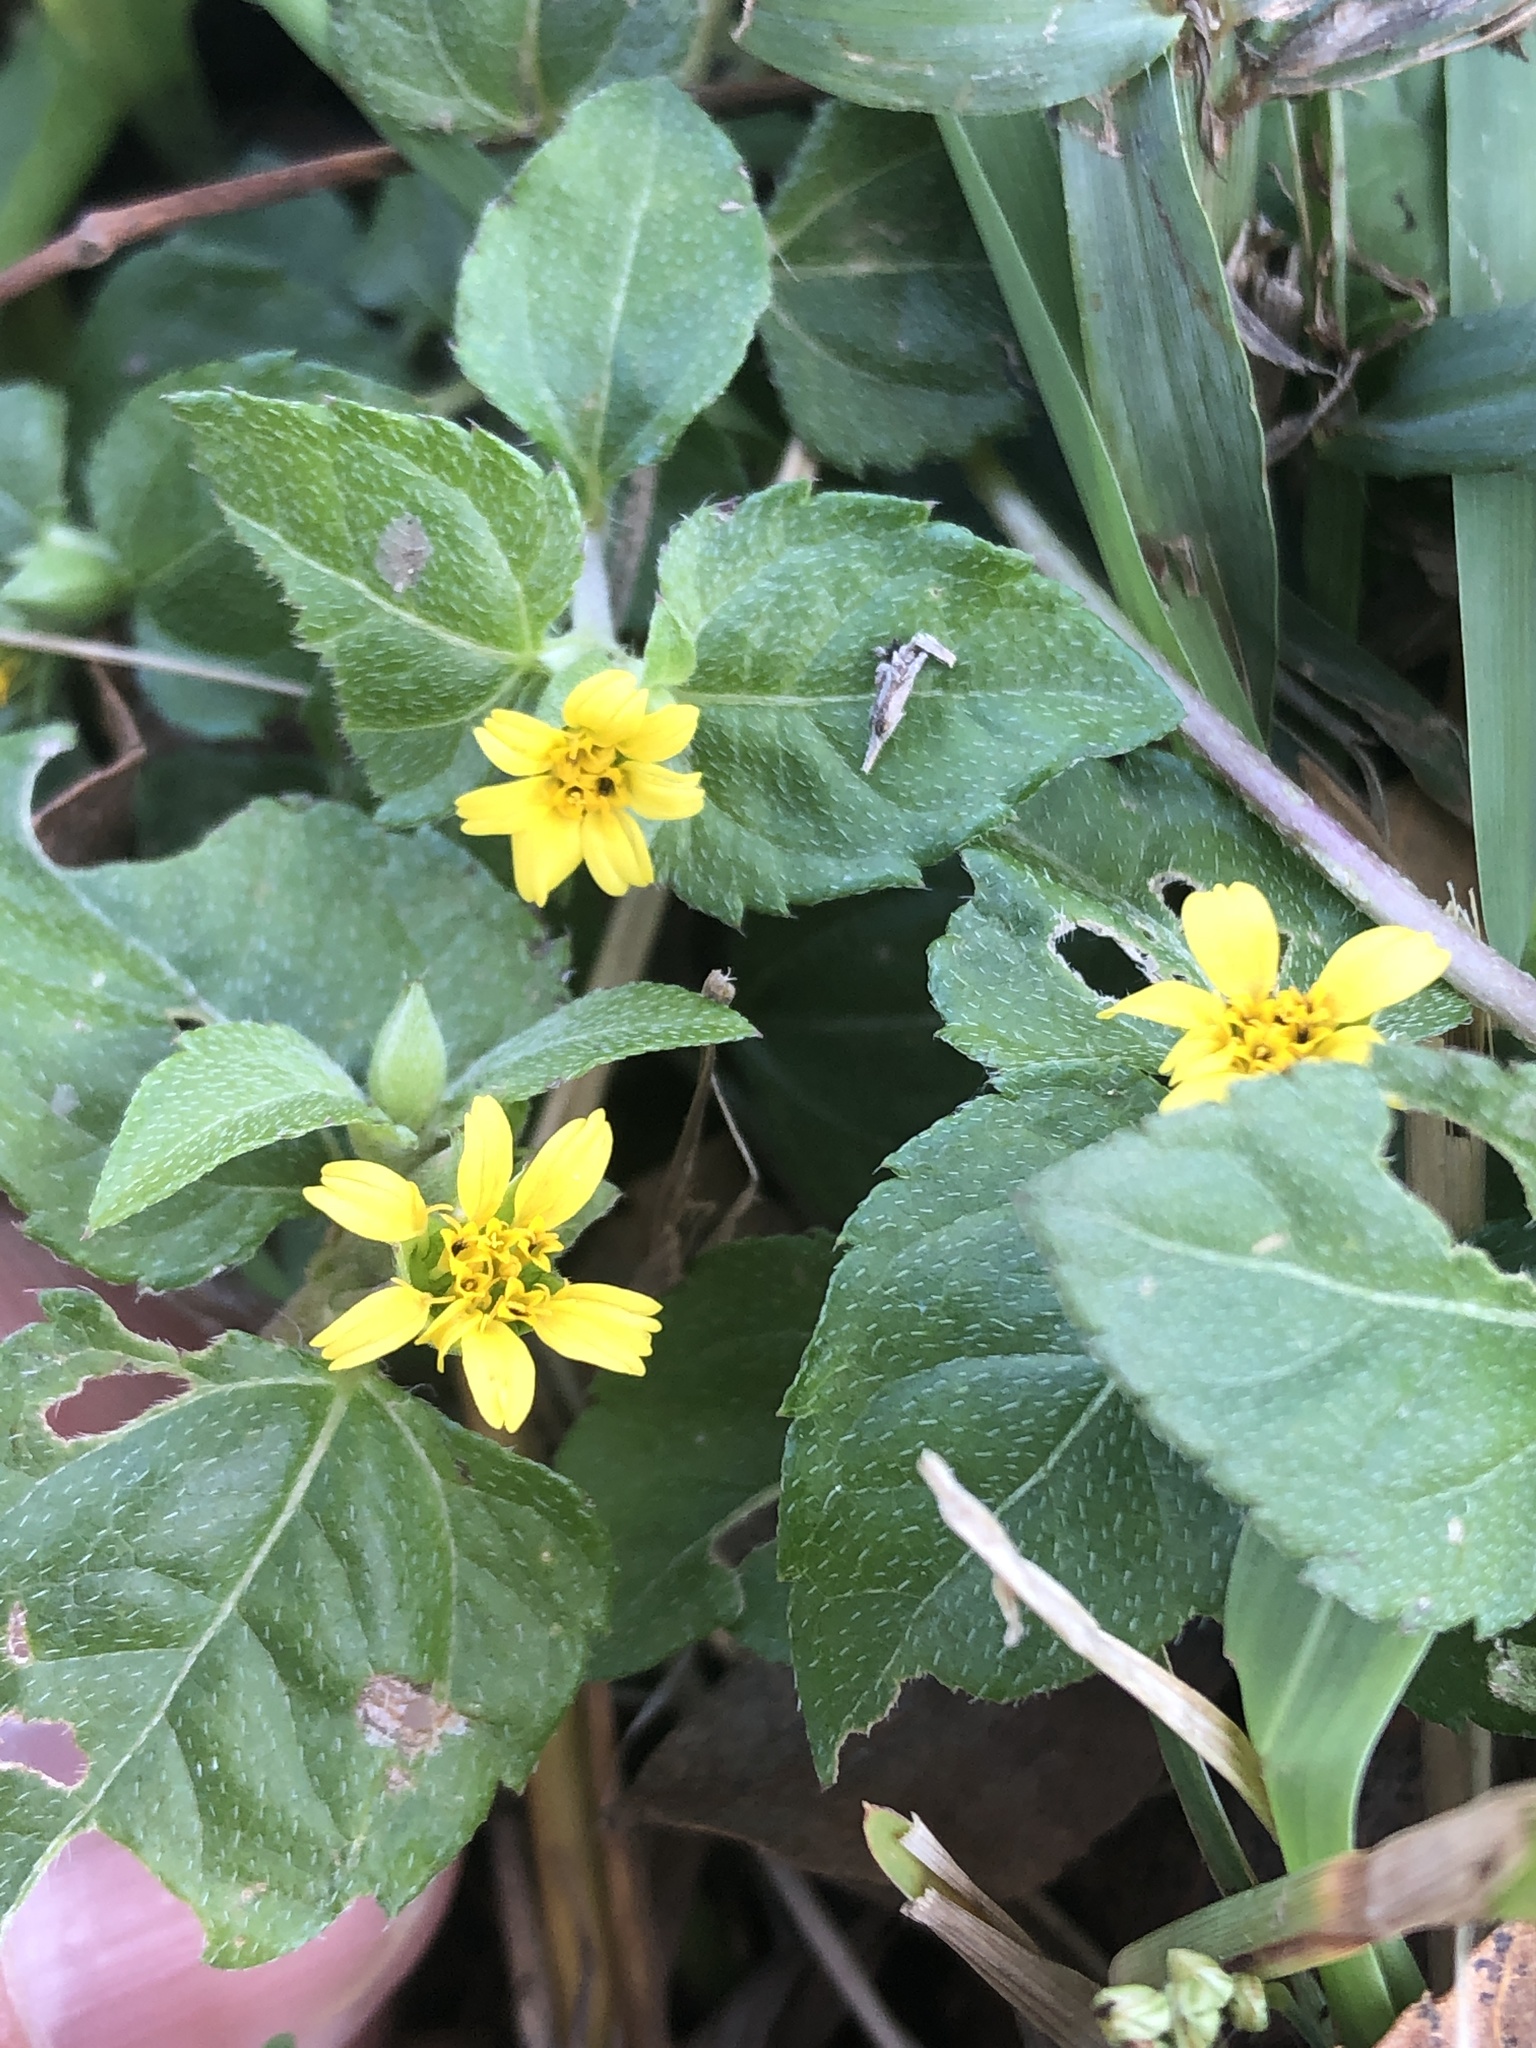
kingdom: Plantae
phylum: Tracheophyta
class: Magnoliopsida
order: Asterales
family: Asteraceae
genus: Calyptocarpus
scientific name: Calyptocarpus vialis
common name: Straggler daisy
